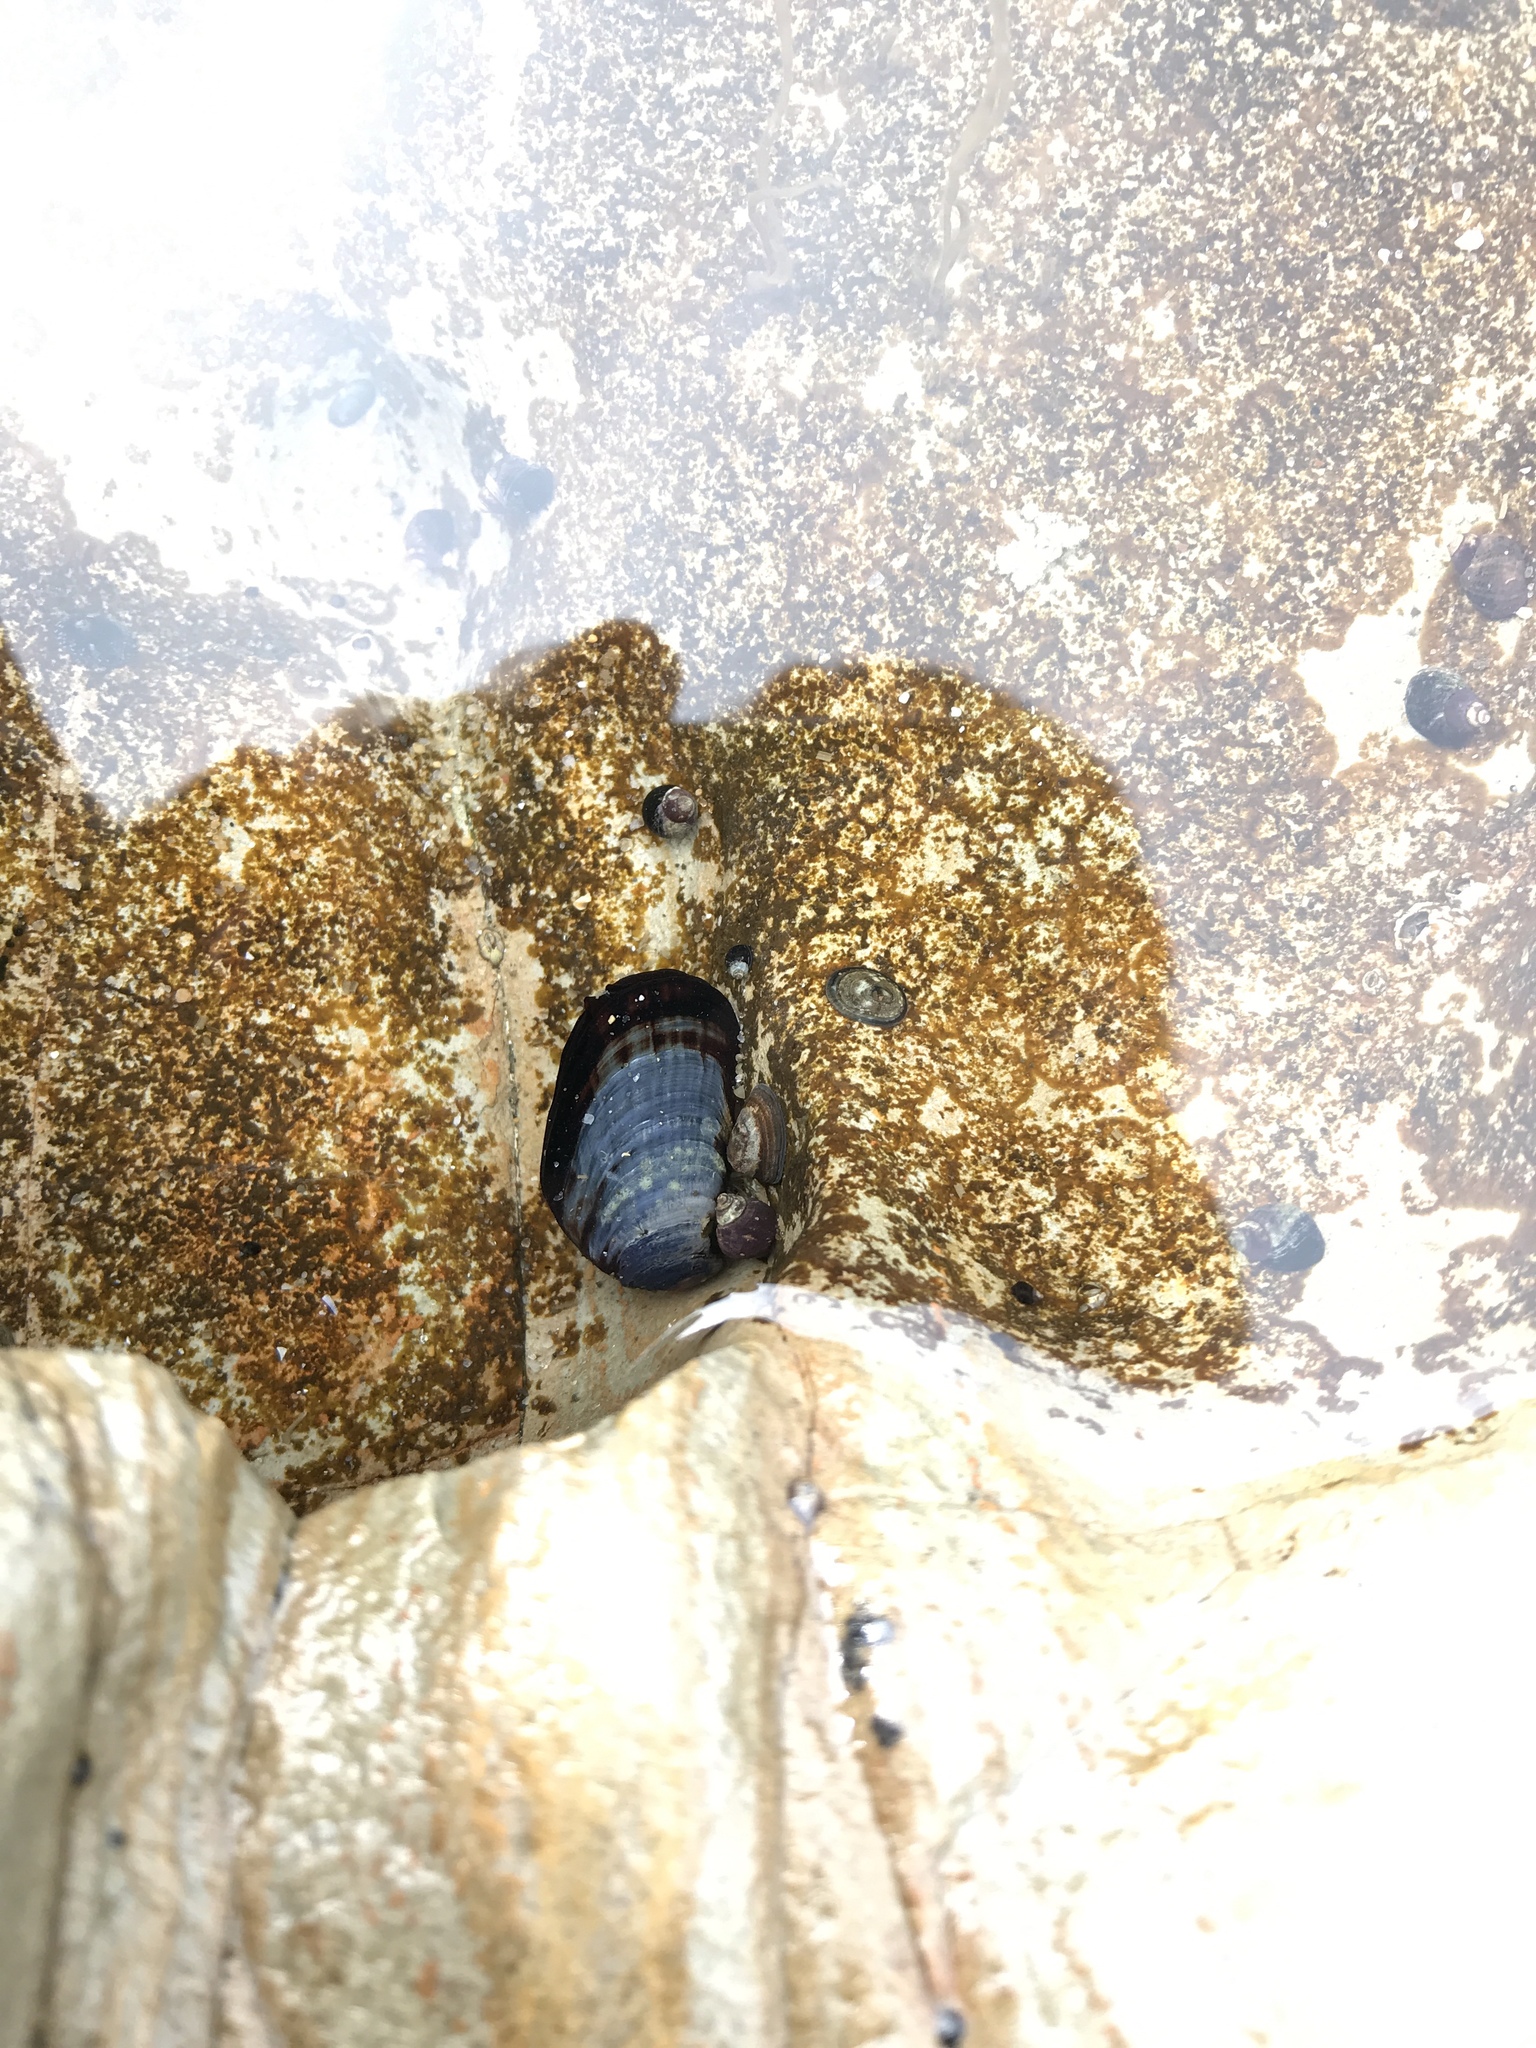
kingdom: Animalia
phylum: Mollusca
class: Bivalvia
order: Mytilida
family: Mytilidae
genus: Mytilus
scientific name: Mytilus californianus
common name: California mussel
